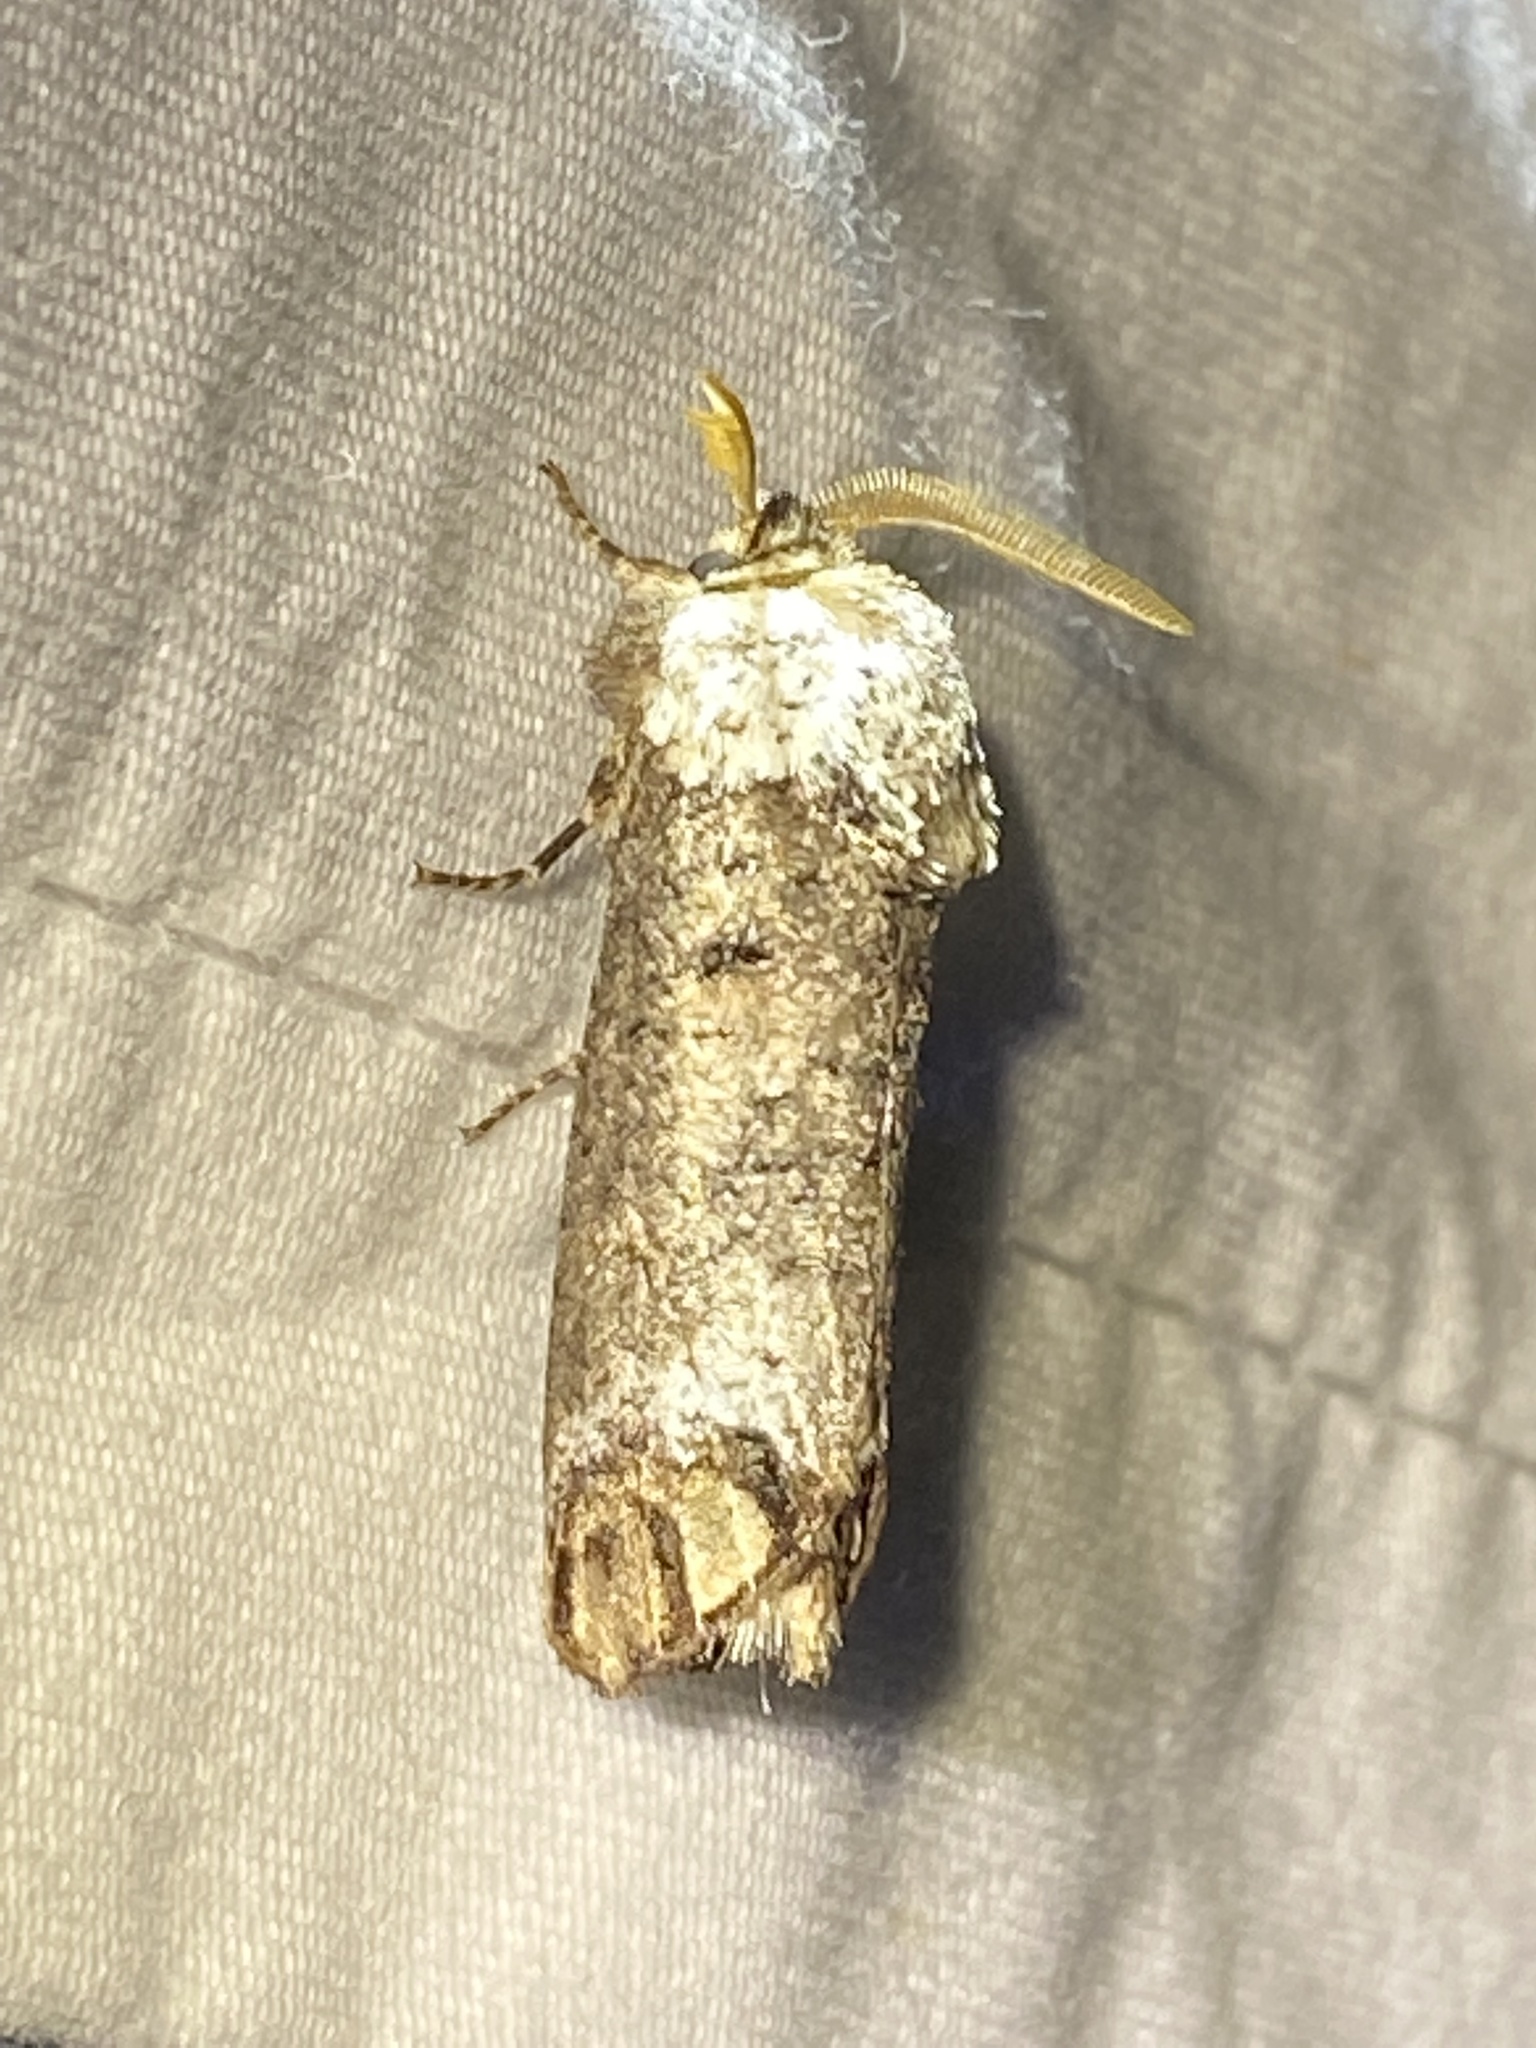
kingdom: Animalia
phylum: Arthropoda
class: Insecta
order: Lepidoptera
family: Cossidae
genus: Cossula
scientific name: Cossula magnifica
